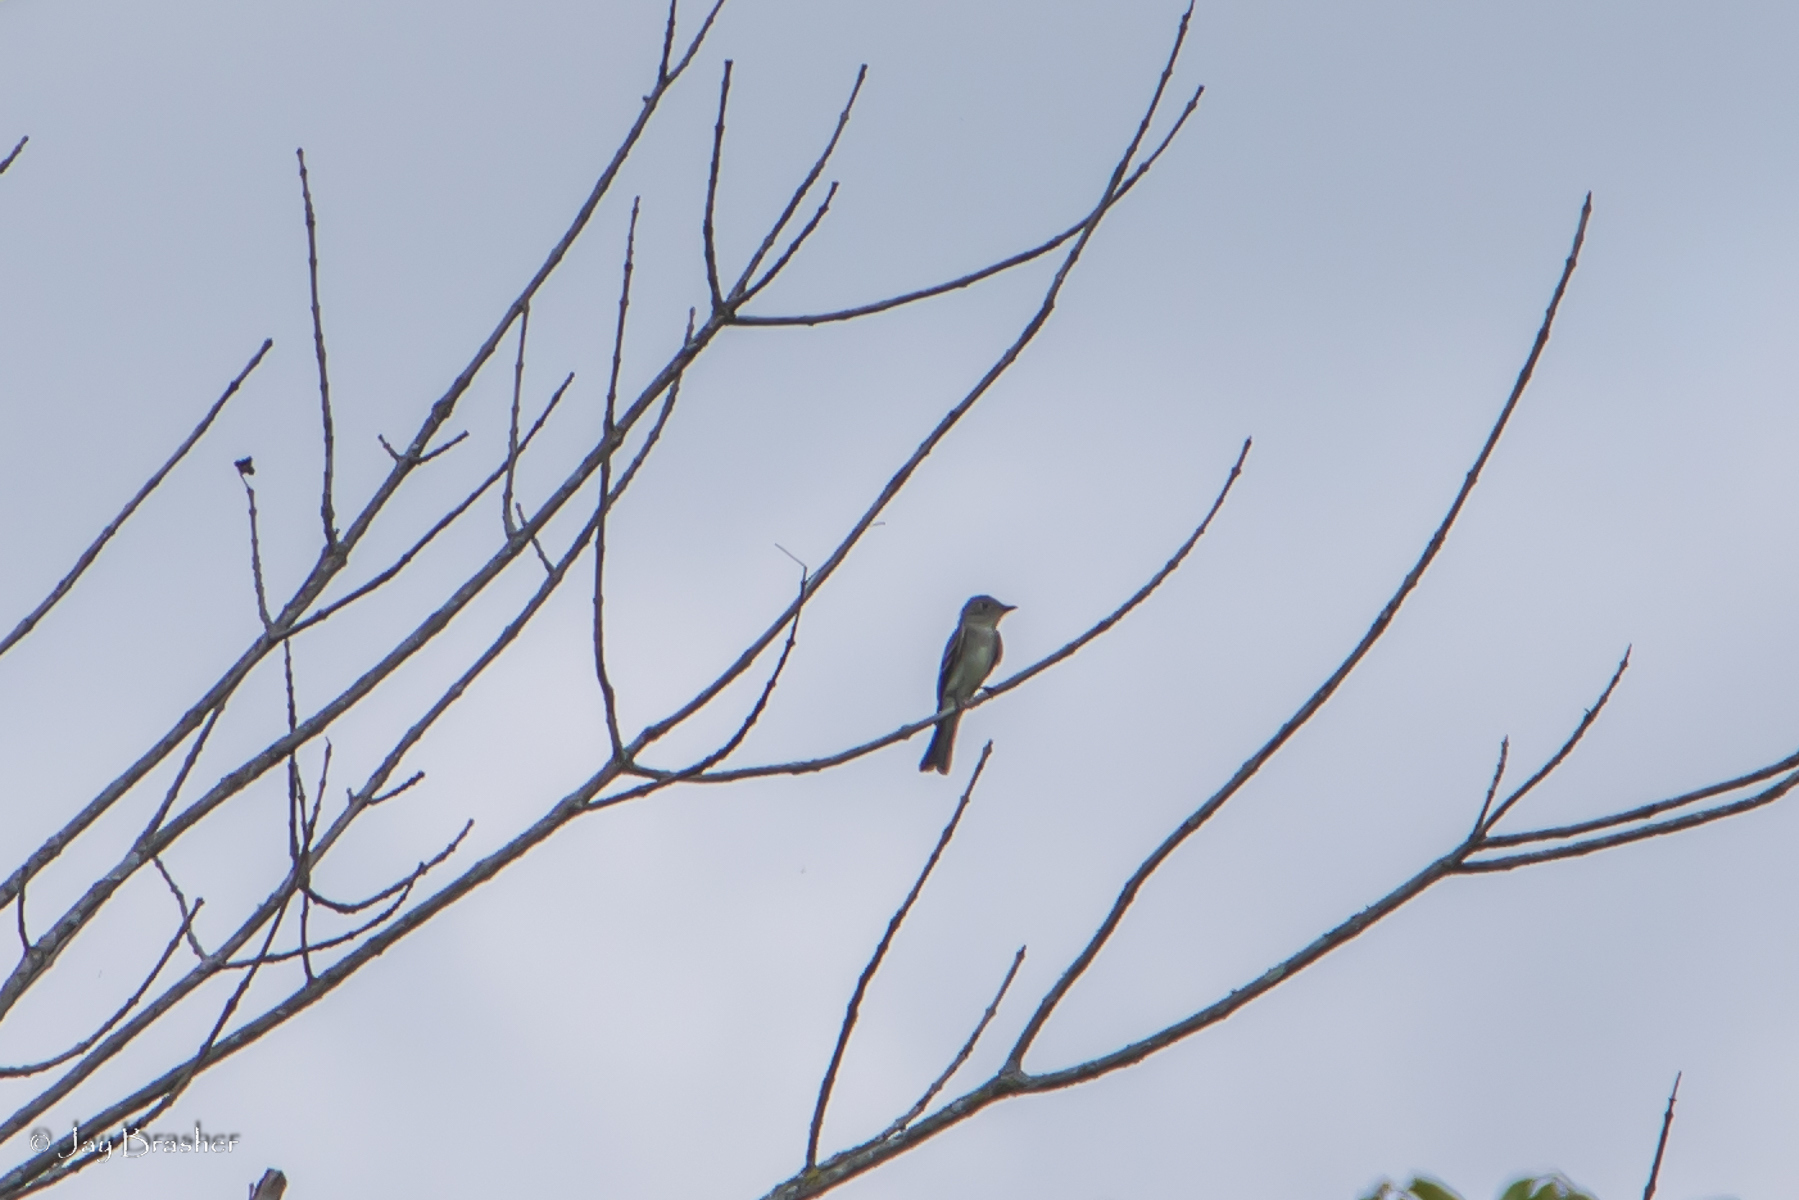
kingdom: Animalia
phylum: Chordata
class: Aves
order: Passeriformes
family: Tyrannidae
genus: Contopus
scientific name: Contopus virens
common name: Eastern wood-pewee
